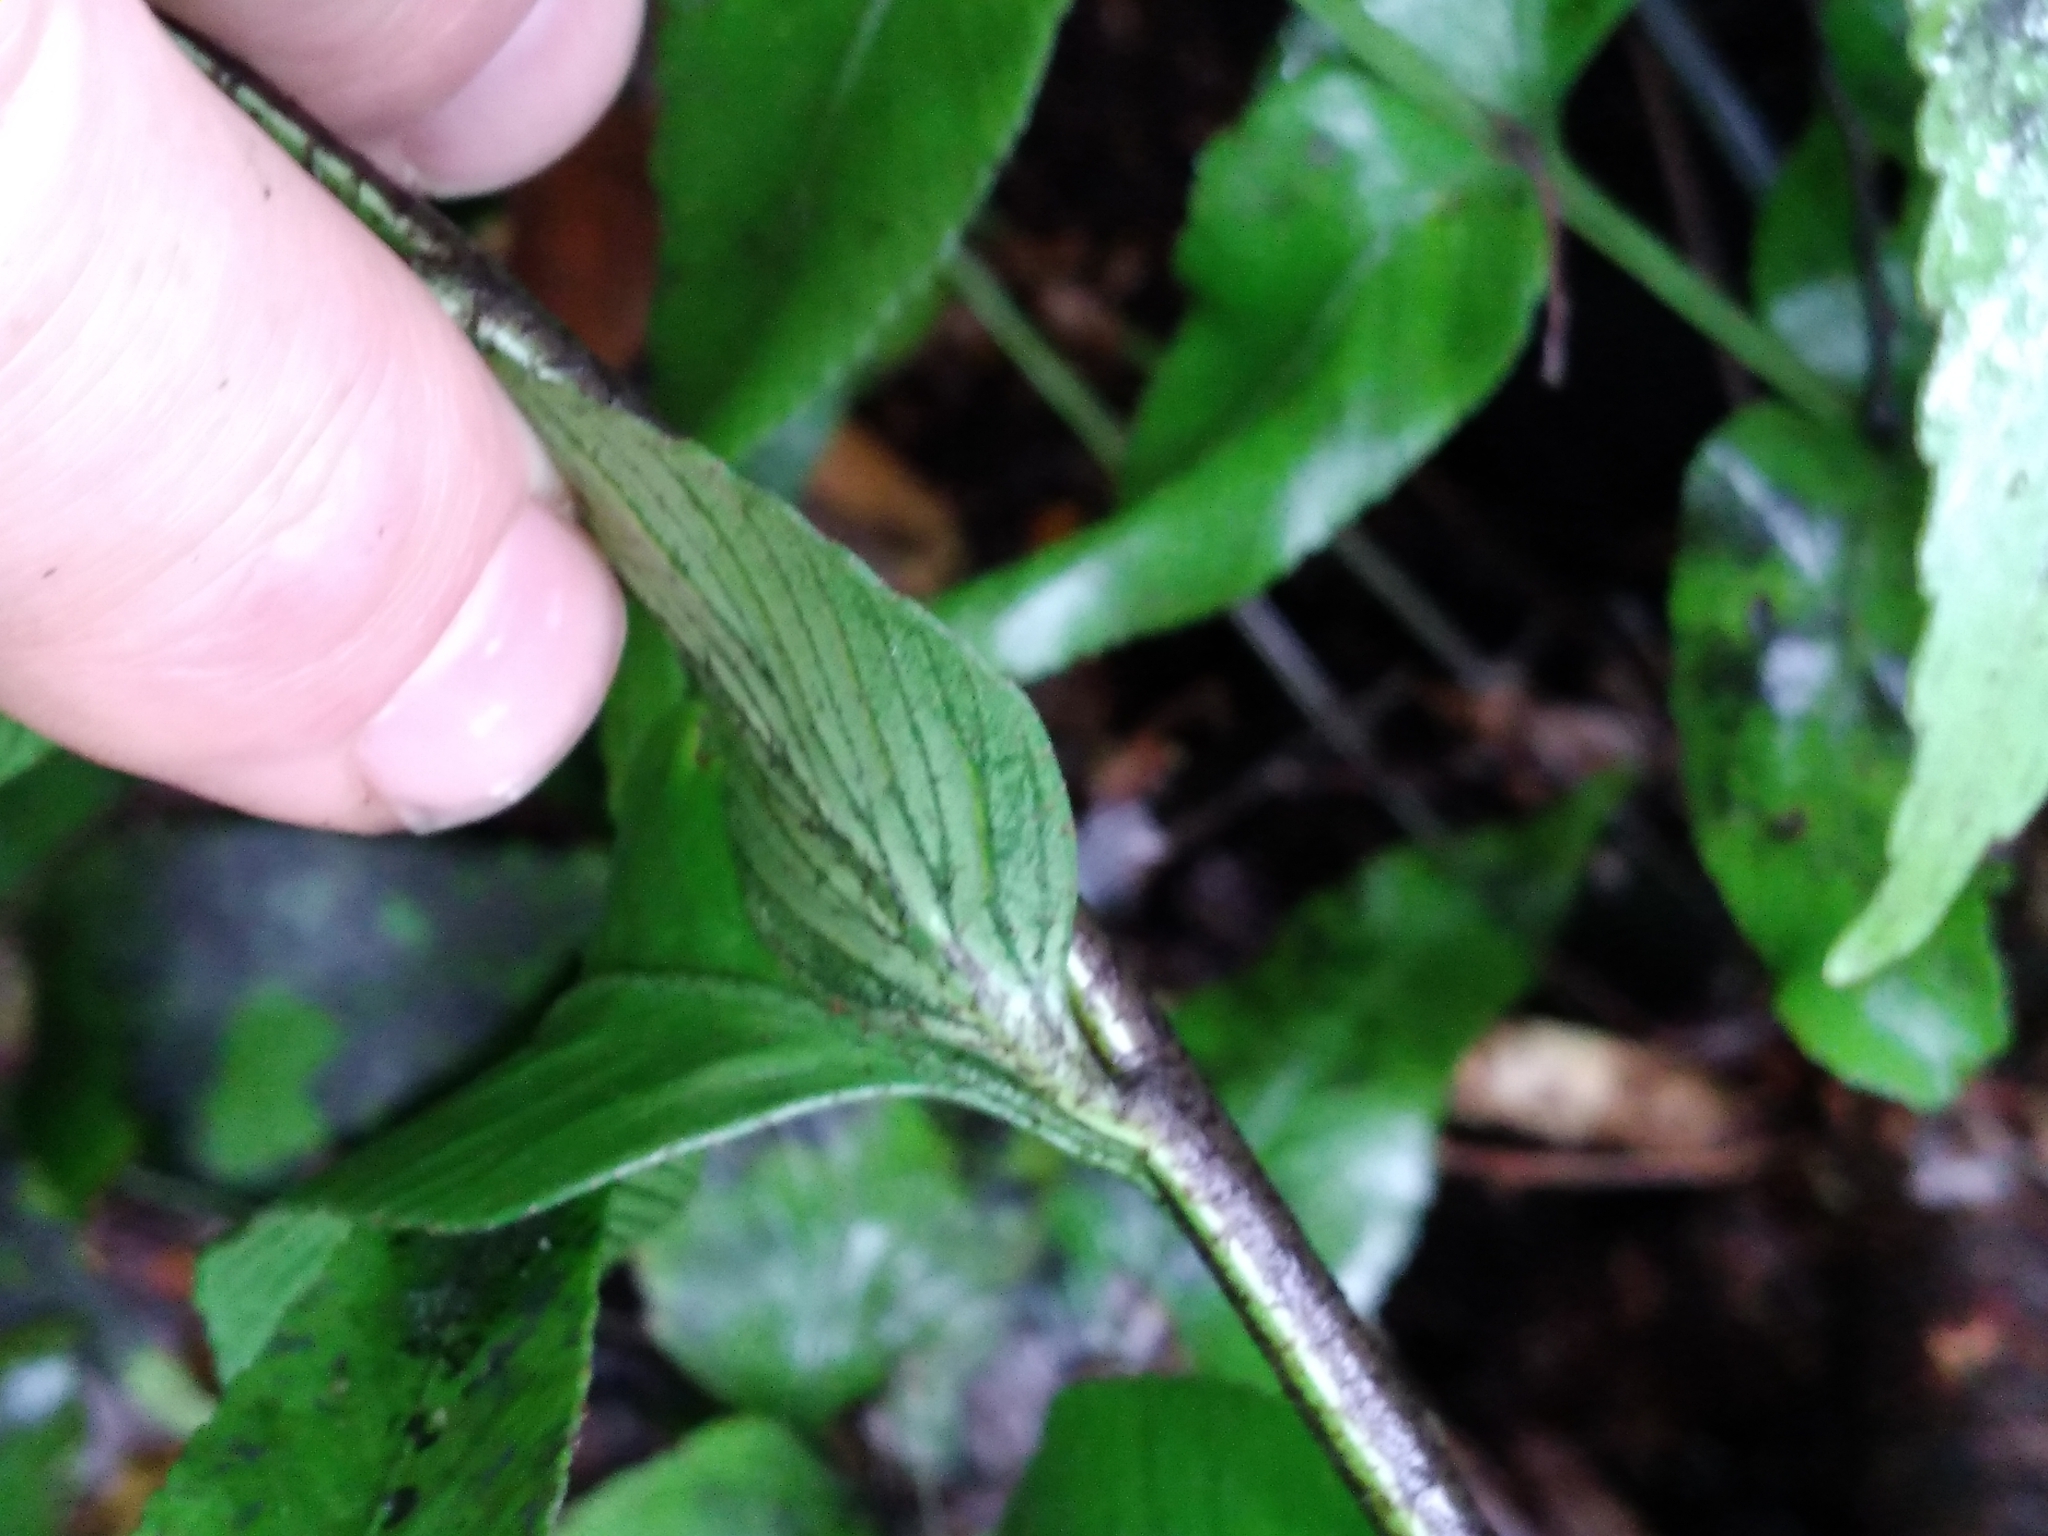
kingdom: Plantae
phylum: Tracheophyta
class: Polypodiopsida
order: Polypodiales
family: Aspleniaceae
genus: Asplenium
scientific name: Asplenium lepidotum
